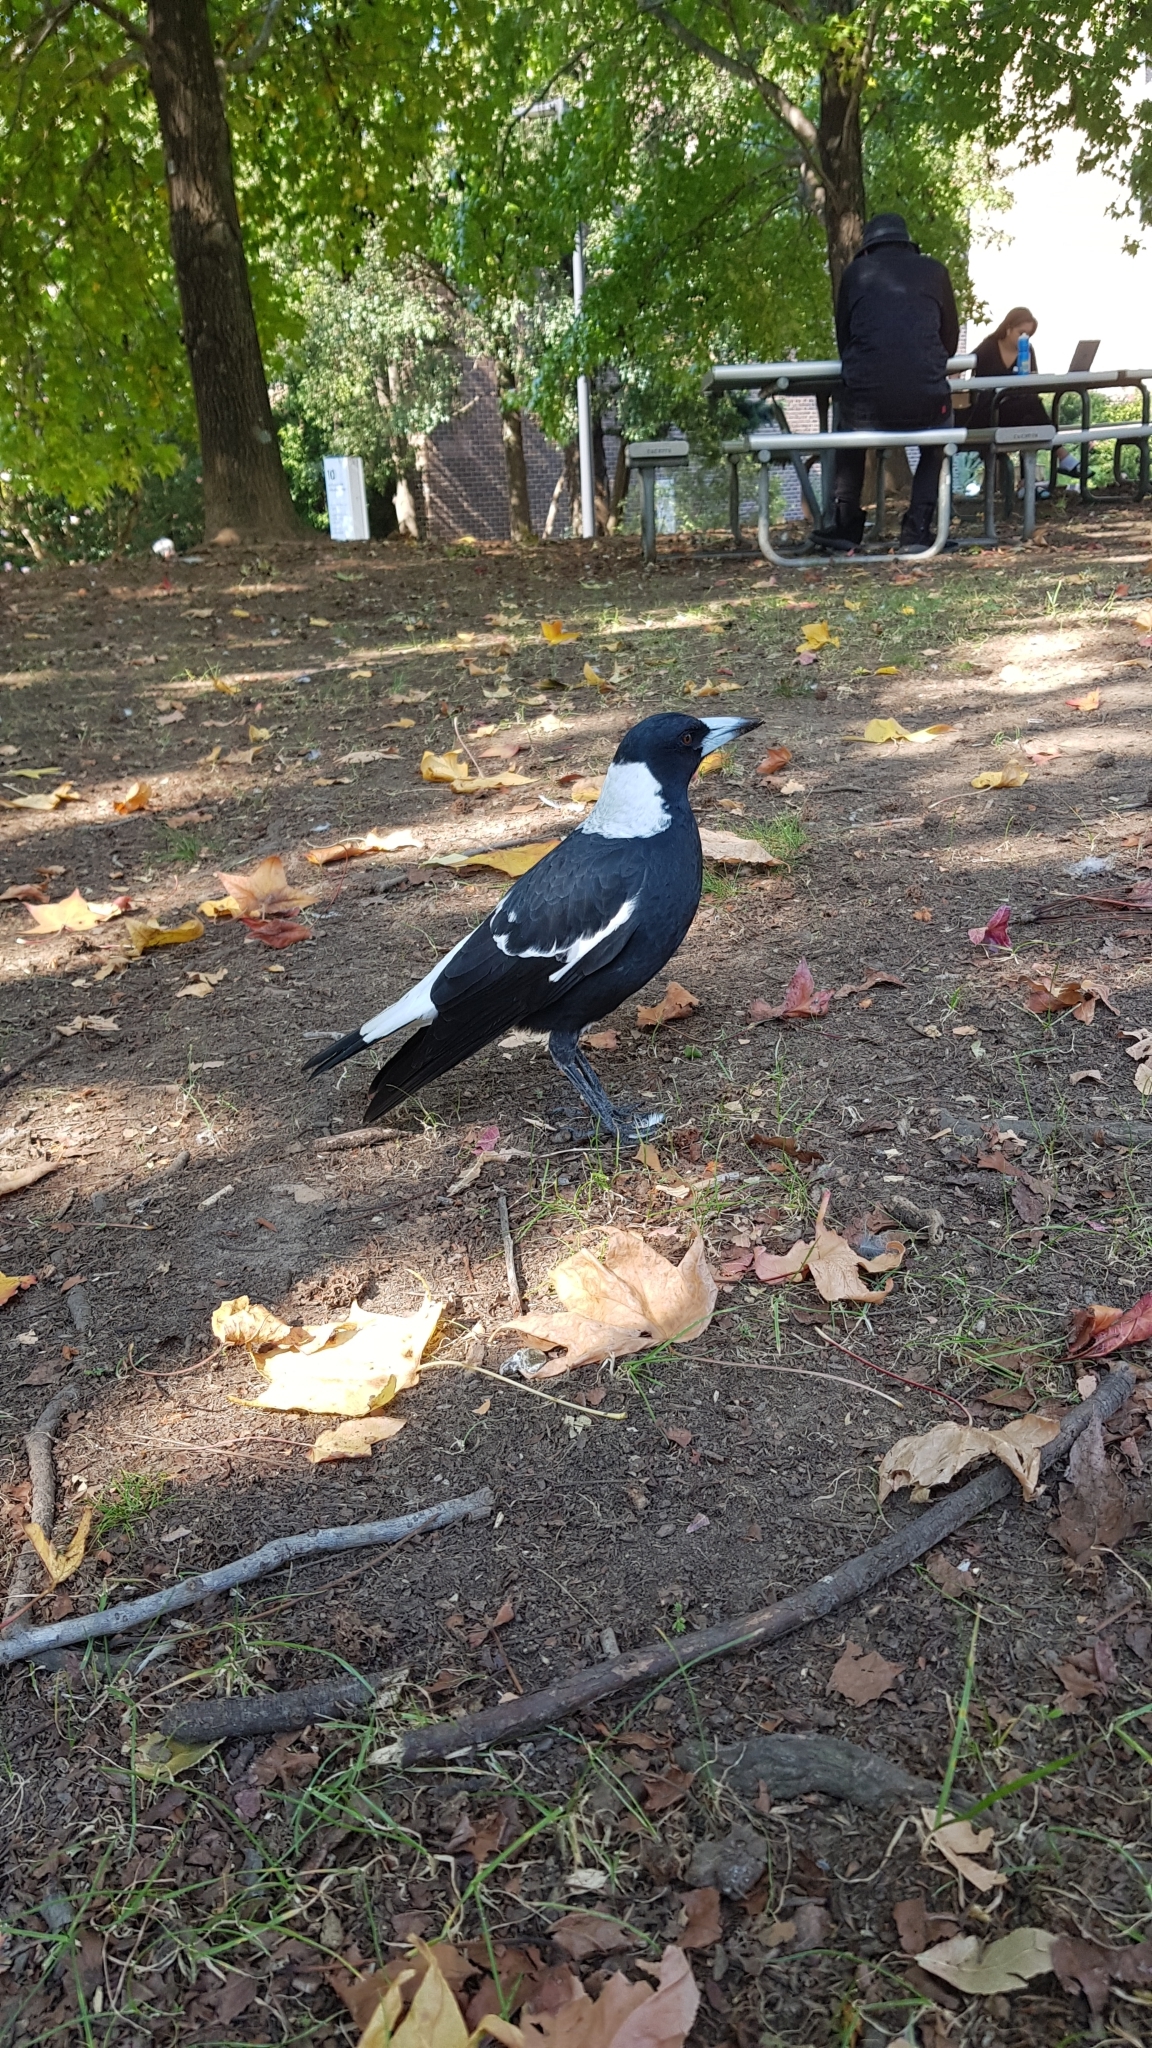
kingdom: Animalia
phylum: Chordata
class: Aves
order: Passeriformes
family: Cracticidae
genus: Gymnorhina
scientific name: Gymnorhina tibicen
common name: Australian magpie
